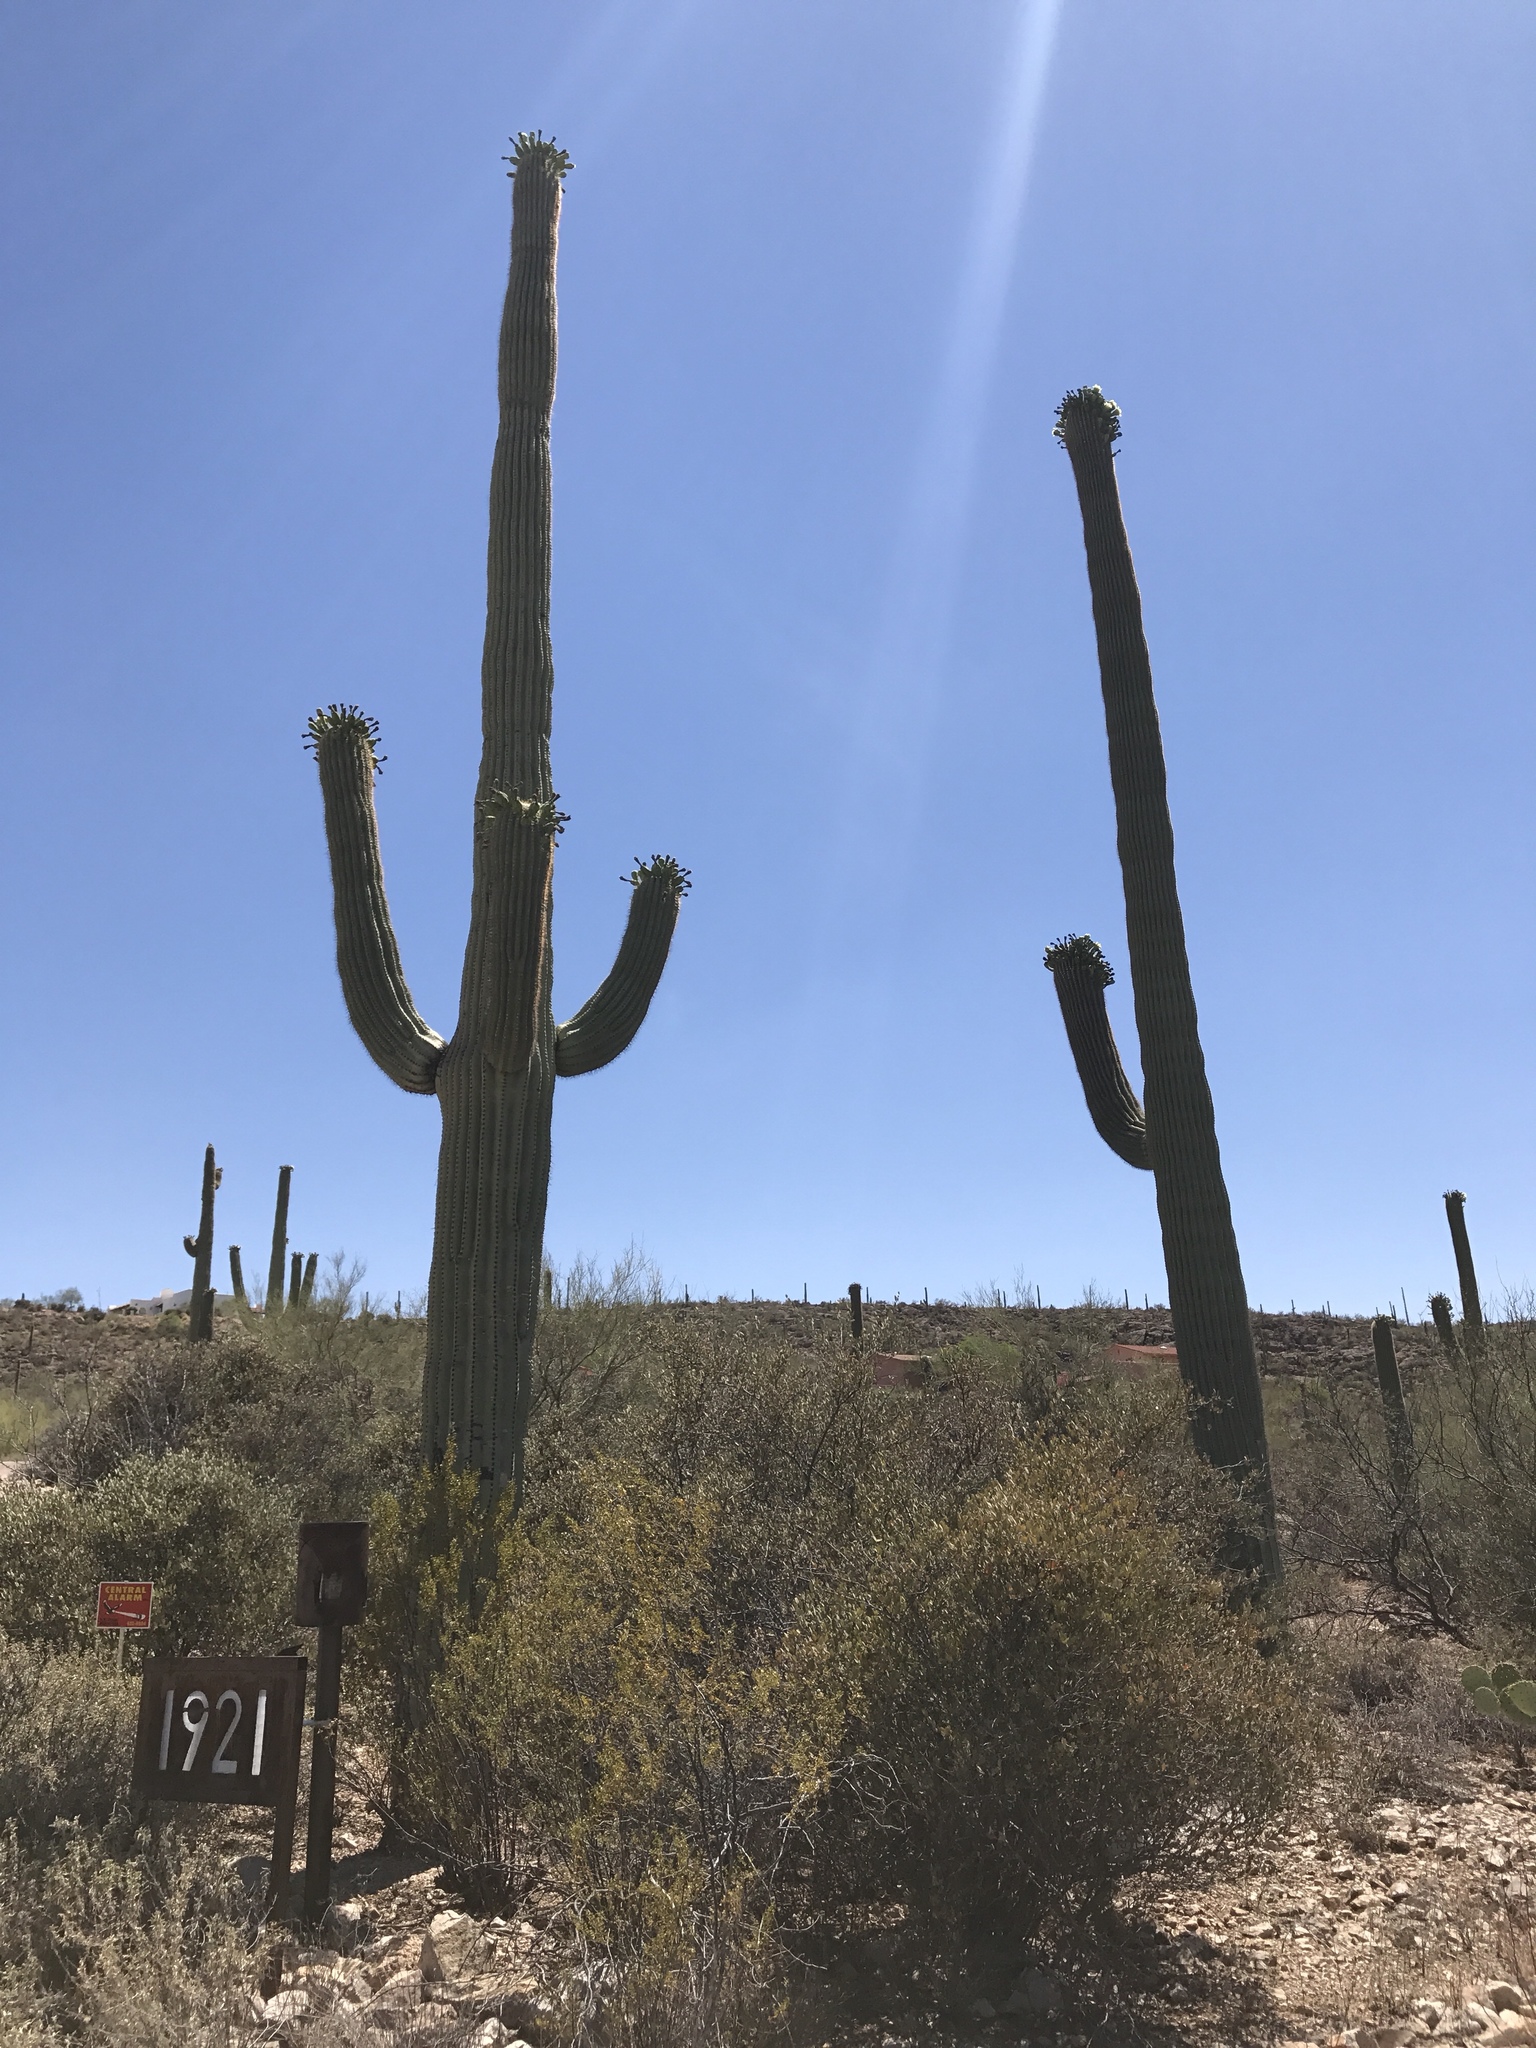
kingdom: Plantae
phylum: Tracheophyta
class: Magnoliopsida
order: Caryophyllales
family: Cactaceae
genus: Carnegiea
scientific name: Carnegiea gigantea
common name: Saguaro
